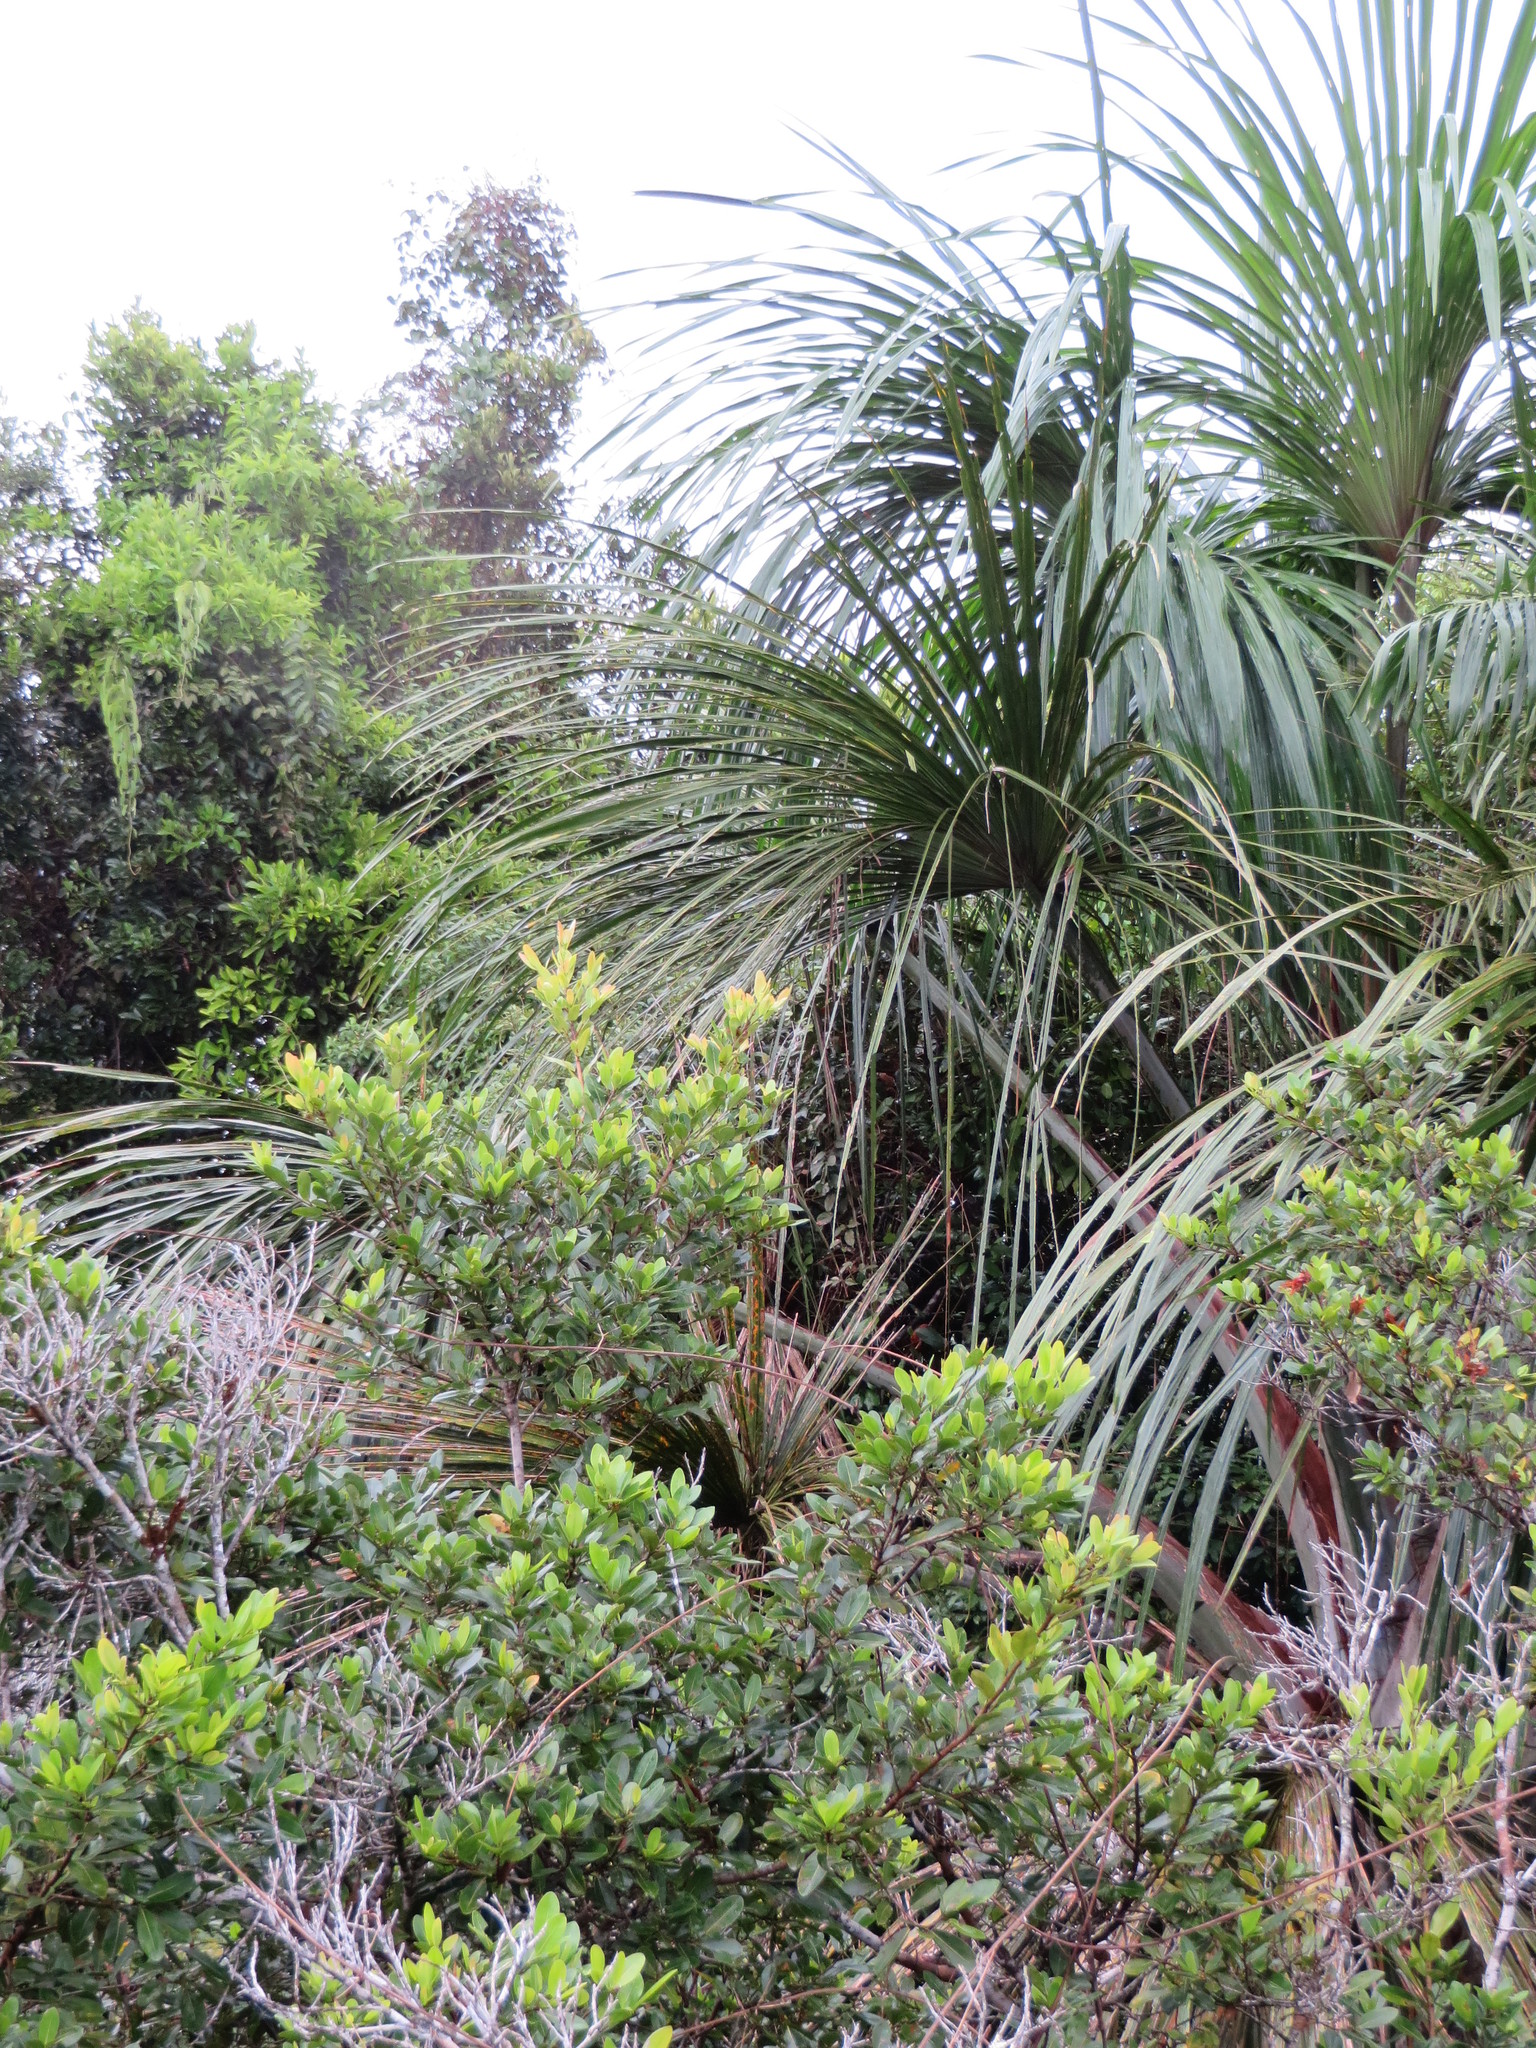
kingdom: Plantae
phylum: Tracheophyta
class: Liliopsida
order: Arecales
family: Arecaceae
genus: Mauritia
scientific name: Mauritia flexuosa
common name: Tree-of-life
